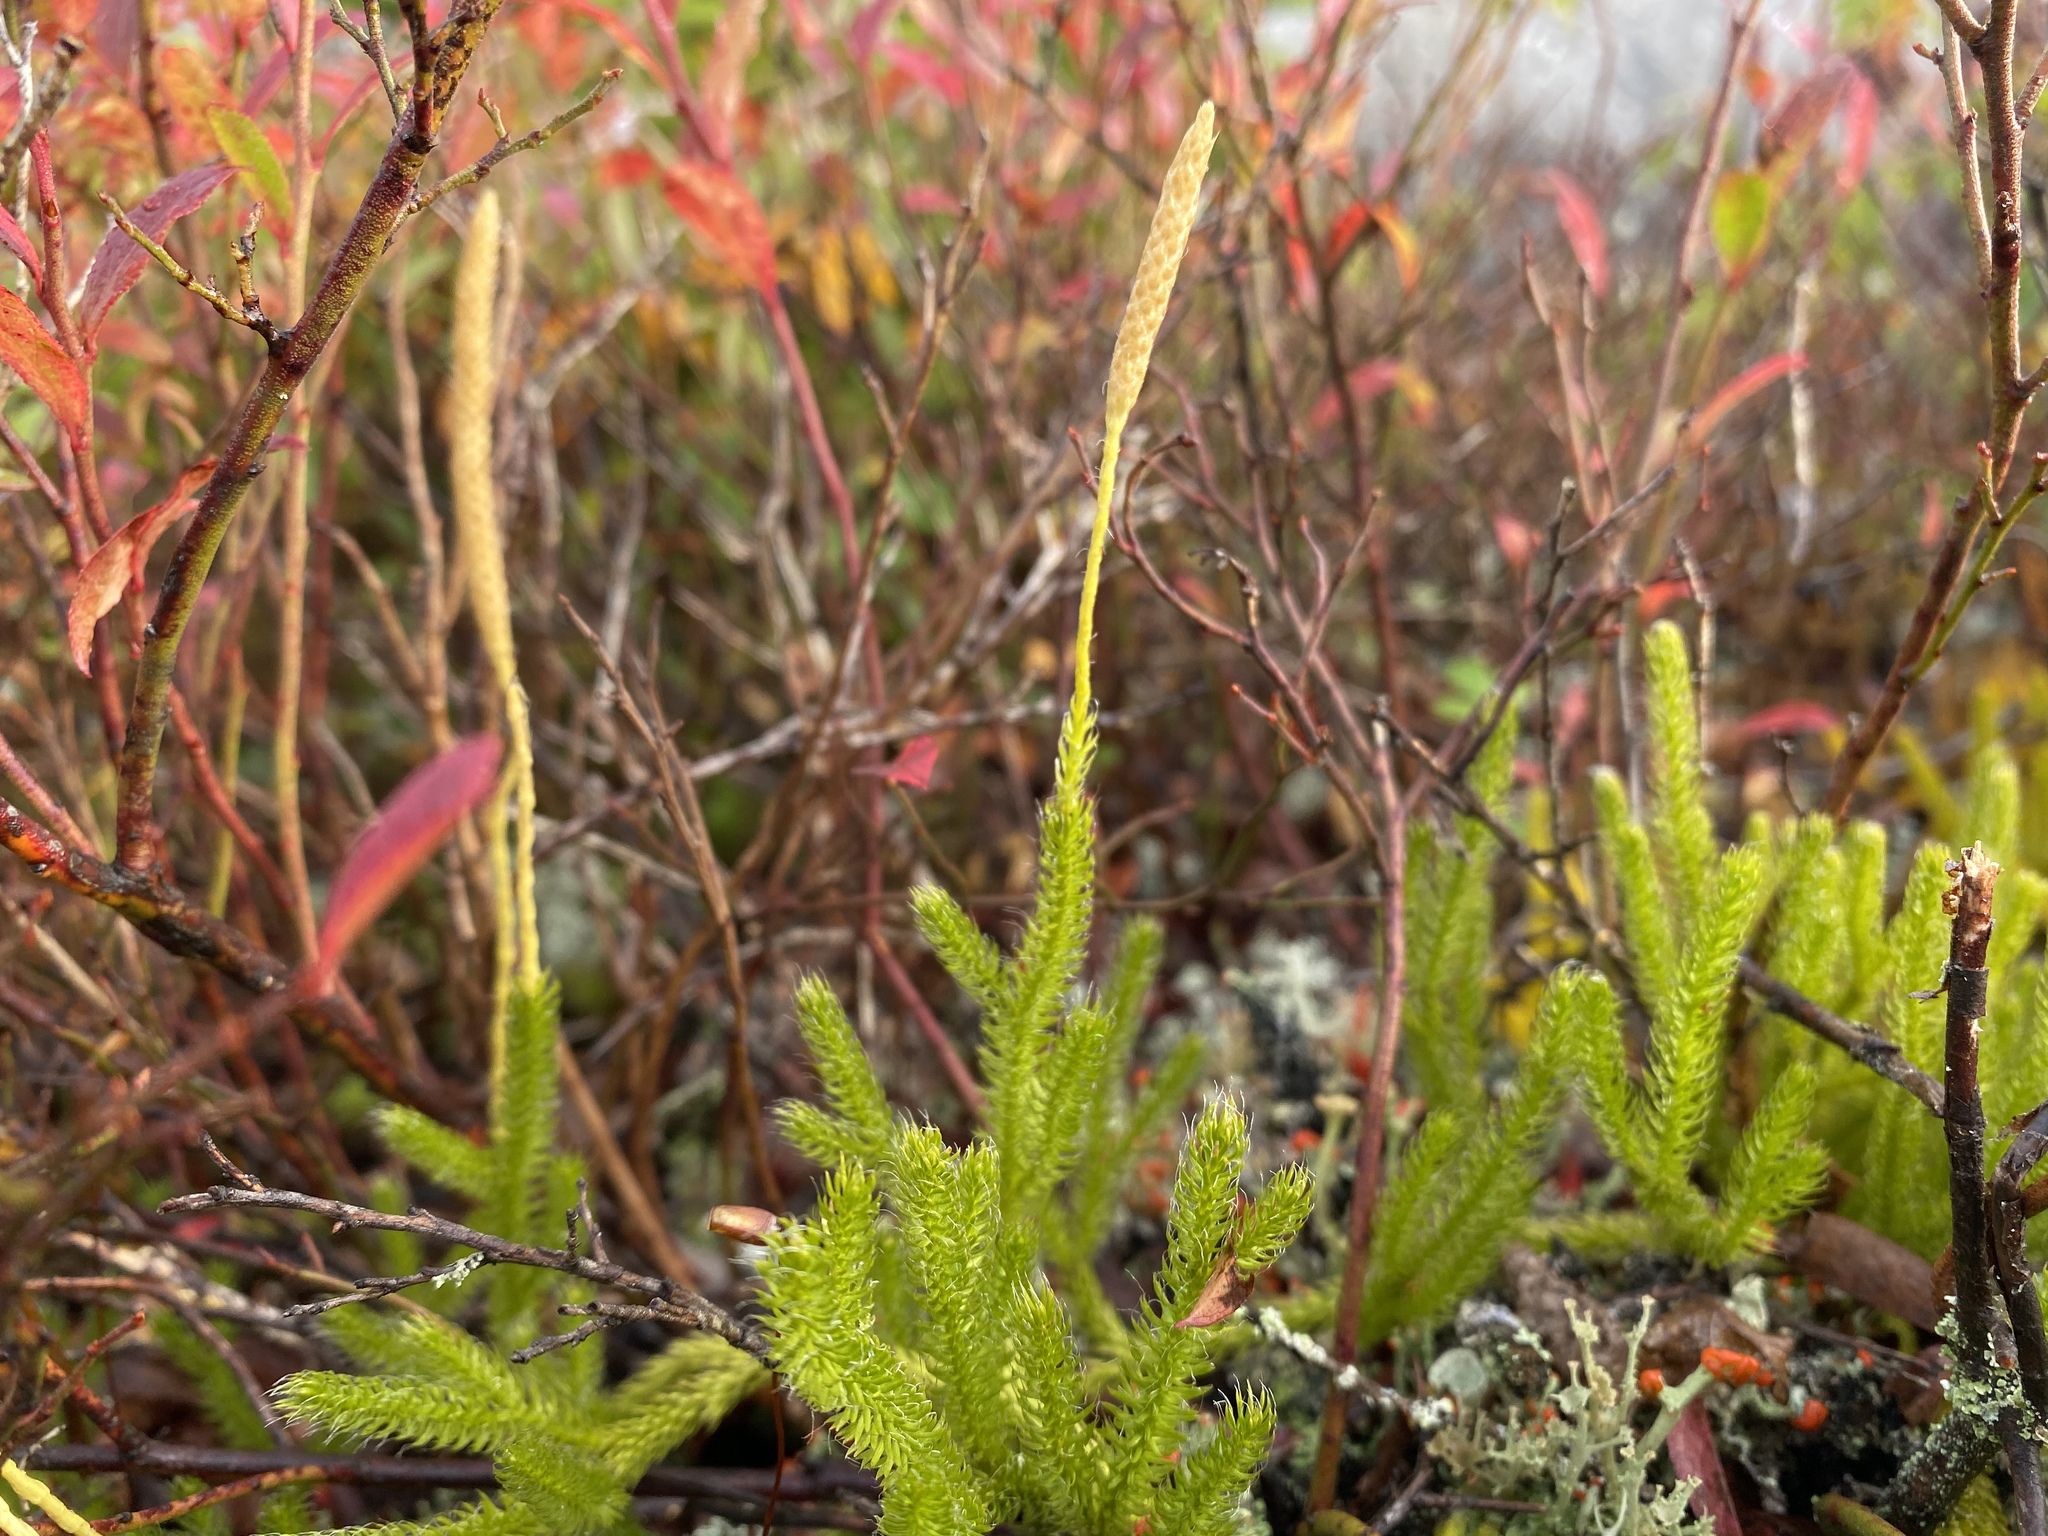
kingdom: Plantae
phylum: Tracheophyta
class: Lycopodiopsida
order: Lycopodiales
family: Lycopodiaceae
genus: Lycopodium
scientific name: Lycopodium lagopus
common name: One-cone clubmoss
